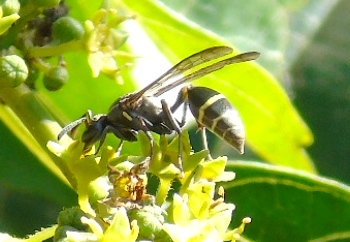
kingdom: Animalia
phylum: Arthropoda
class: Insecta
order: Hymenoptera
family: Vespidae
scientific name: Vespidae
